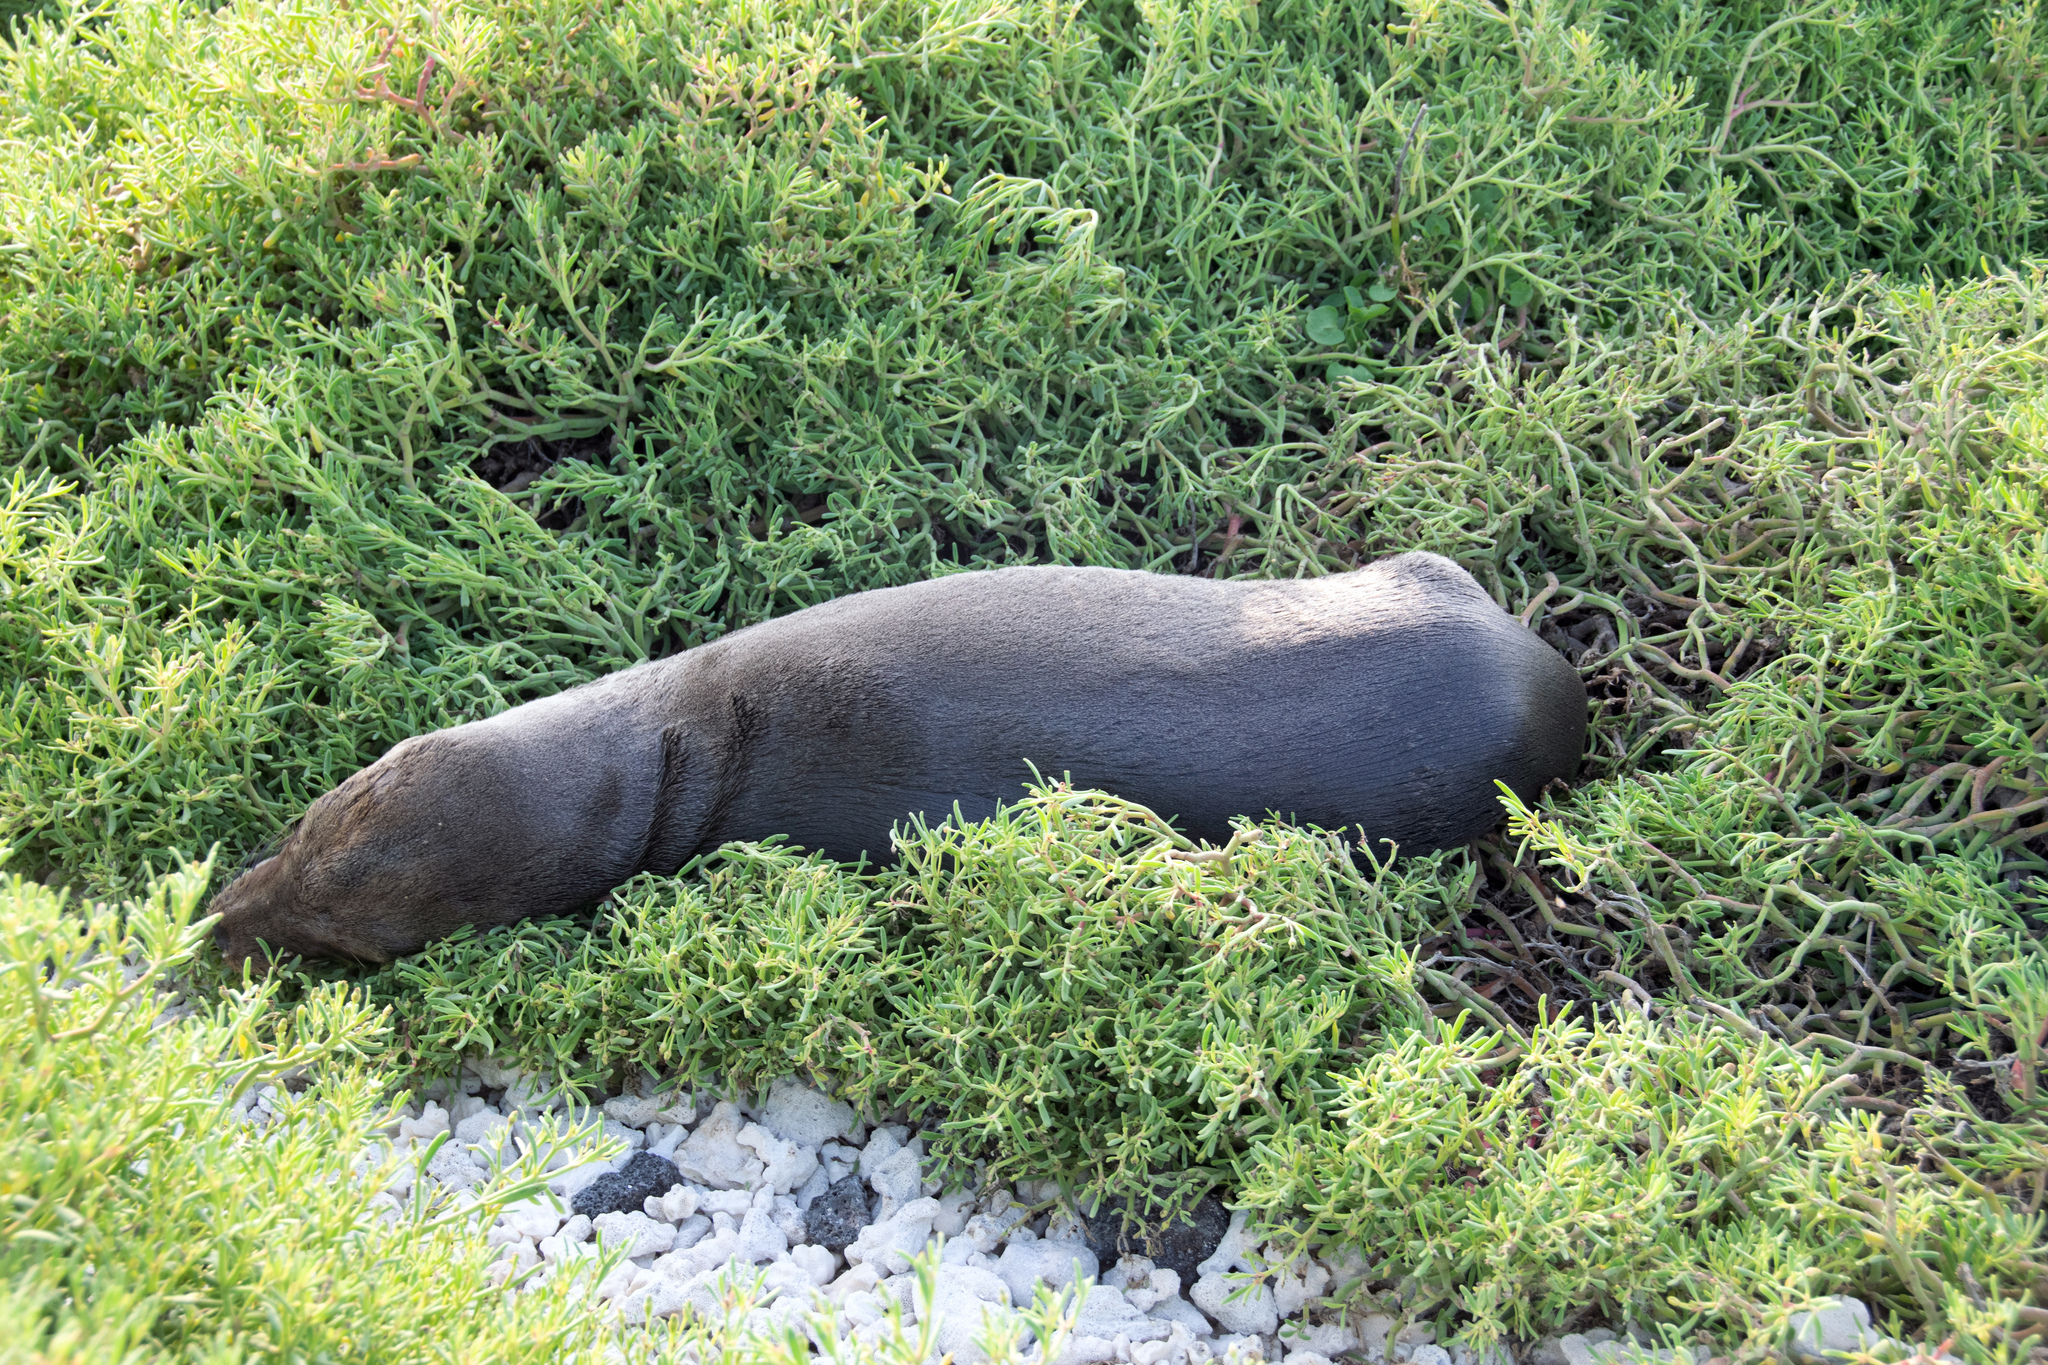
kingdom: Animalia
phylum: Chordata
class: Mammalia
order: Carnivora
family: Otariidae
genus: Zalophus
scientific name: Zalophus wollebaeki
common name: Galapagos sea lion
